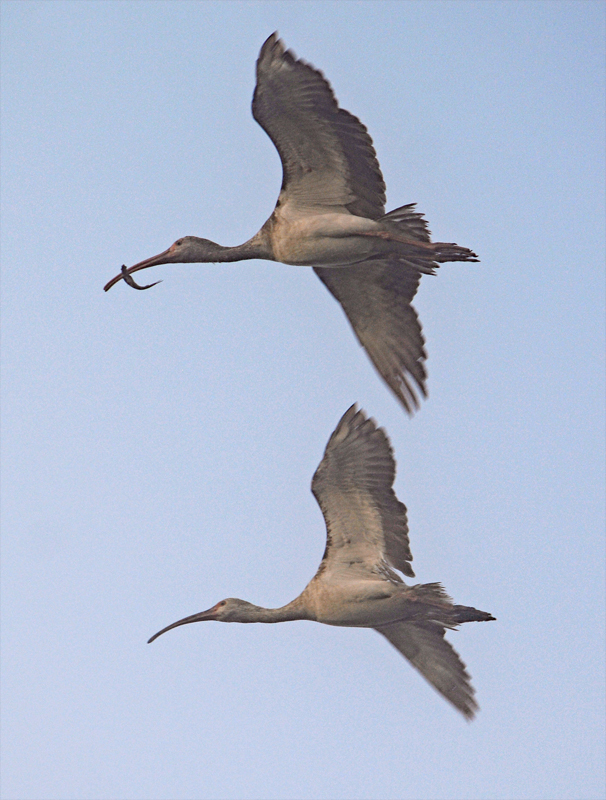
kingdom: Animalia
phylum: Chordata
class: Aves
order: Pelecaniformes
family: Threskiornithidae
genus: Eudocimus
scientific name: Eudocimus albus
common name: White ibis
